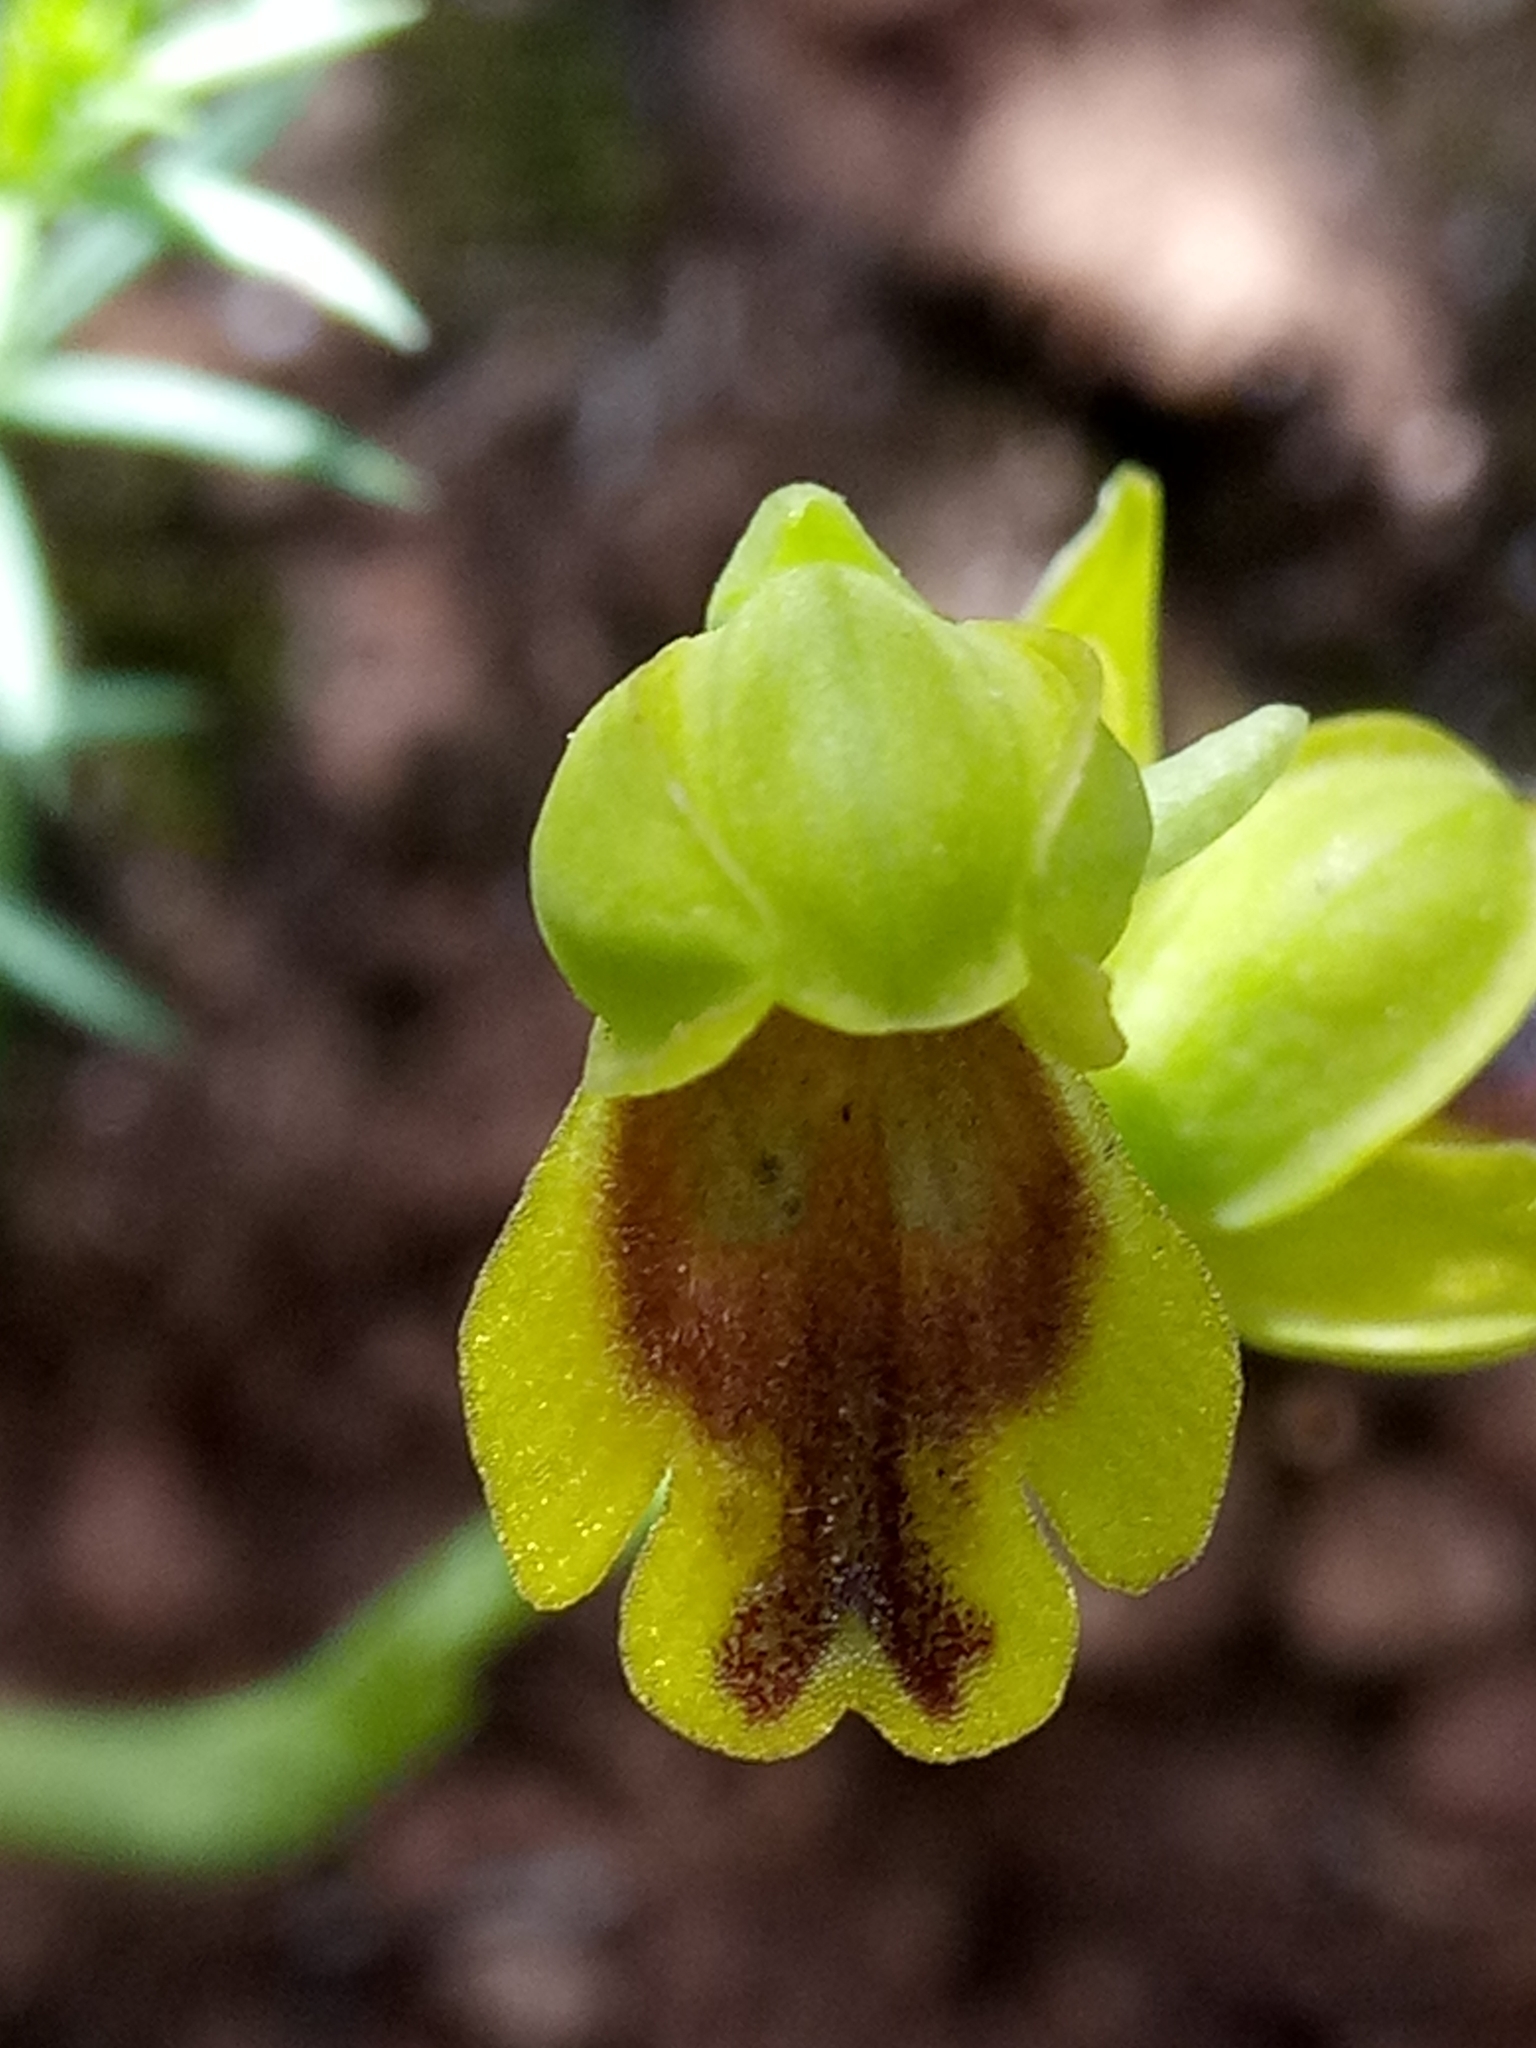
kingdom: Plantae
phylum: Tracheophyta
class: Liliopsida
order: Asparagales
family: Orchidaceae
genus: Ophrys
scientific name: Ophrys battandieri
